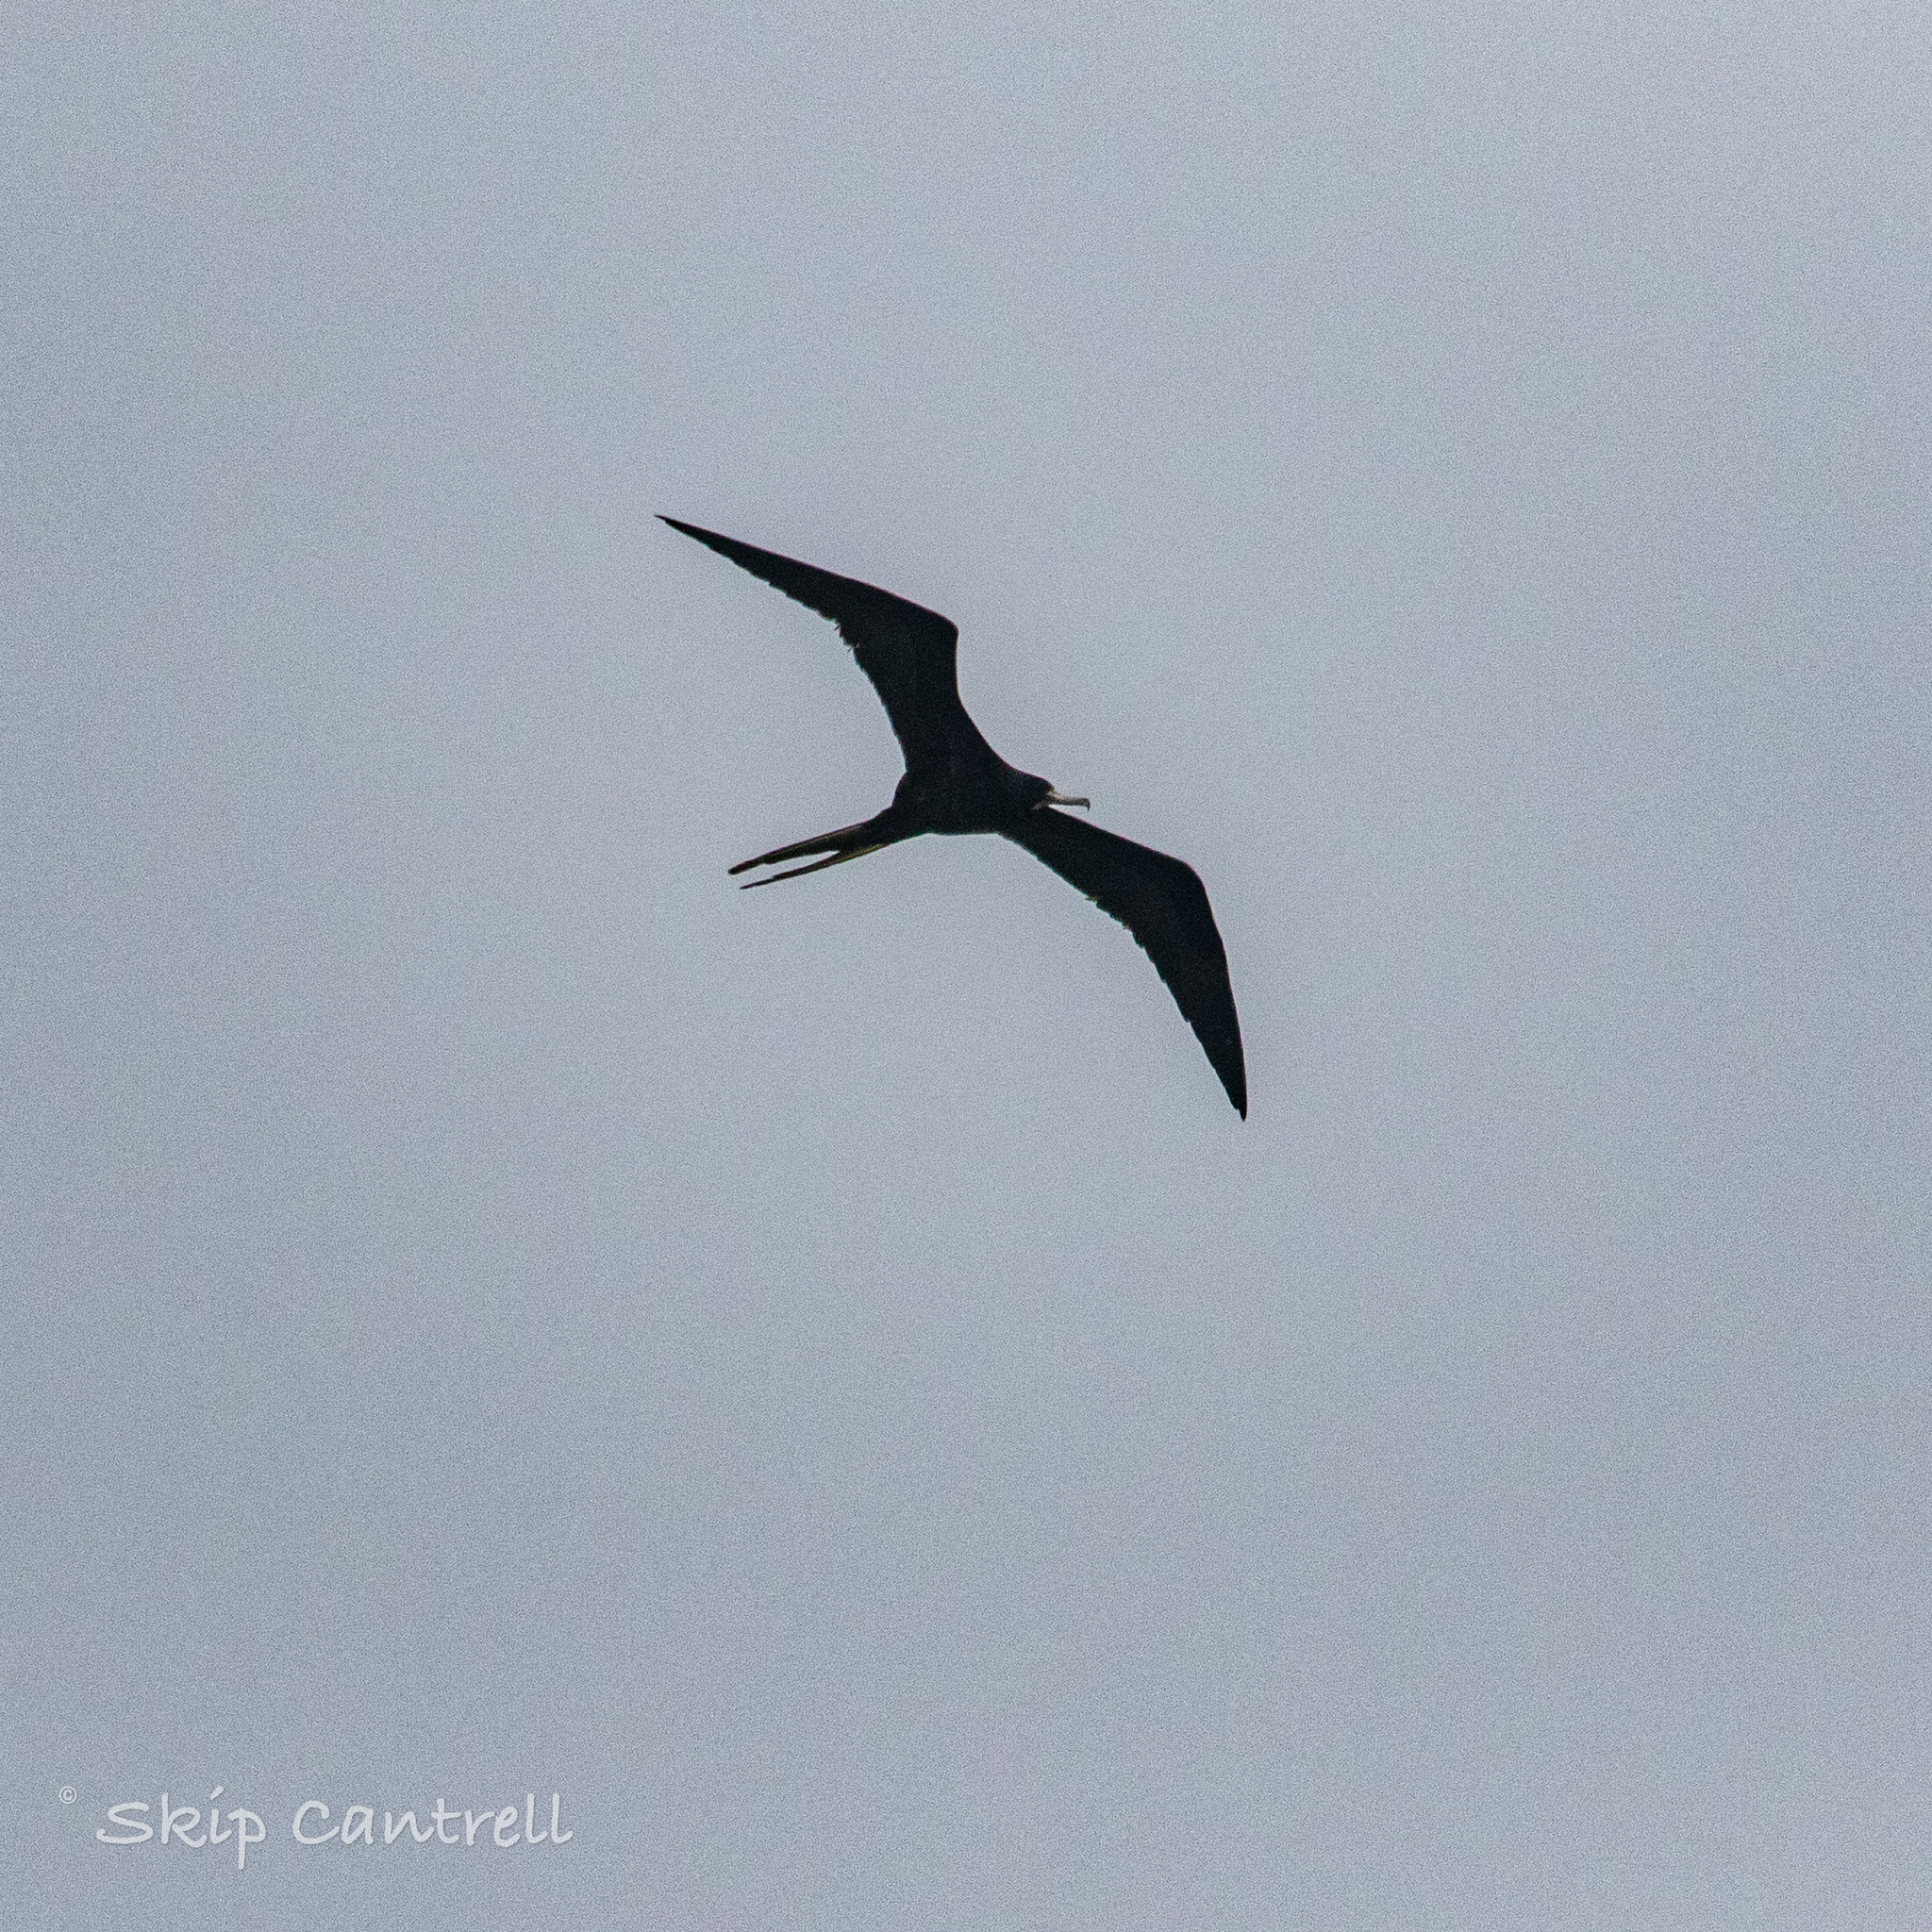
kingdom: Animalia
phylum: Chordata
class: Aves
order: Suliformes
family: Fregatidae
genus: Fregata
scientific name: Fregata magnificens
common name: Magnificent frigatebird
